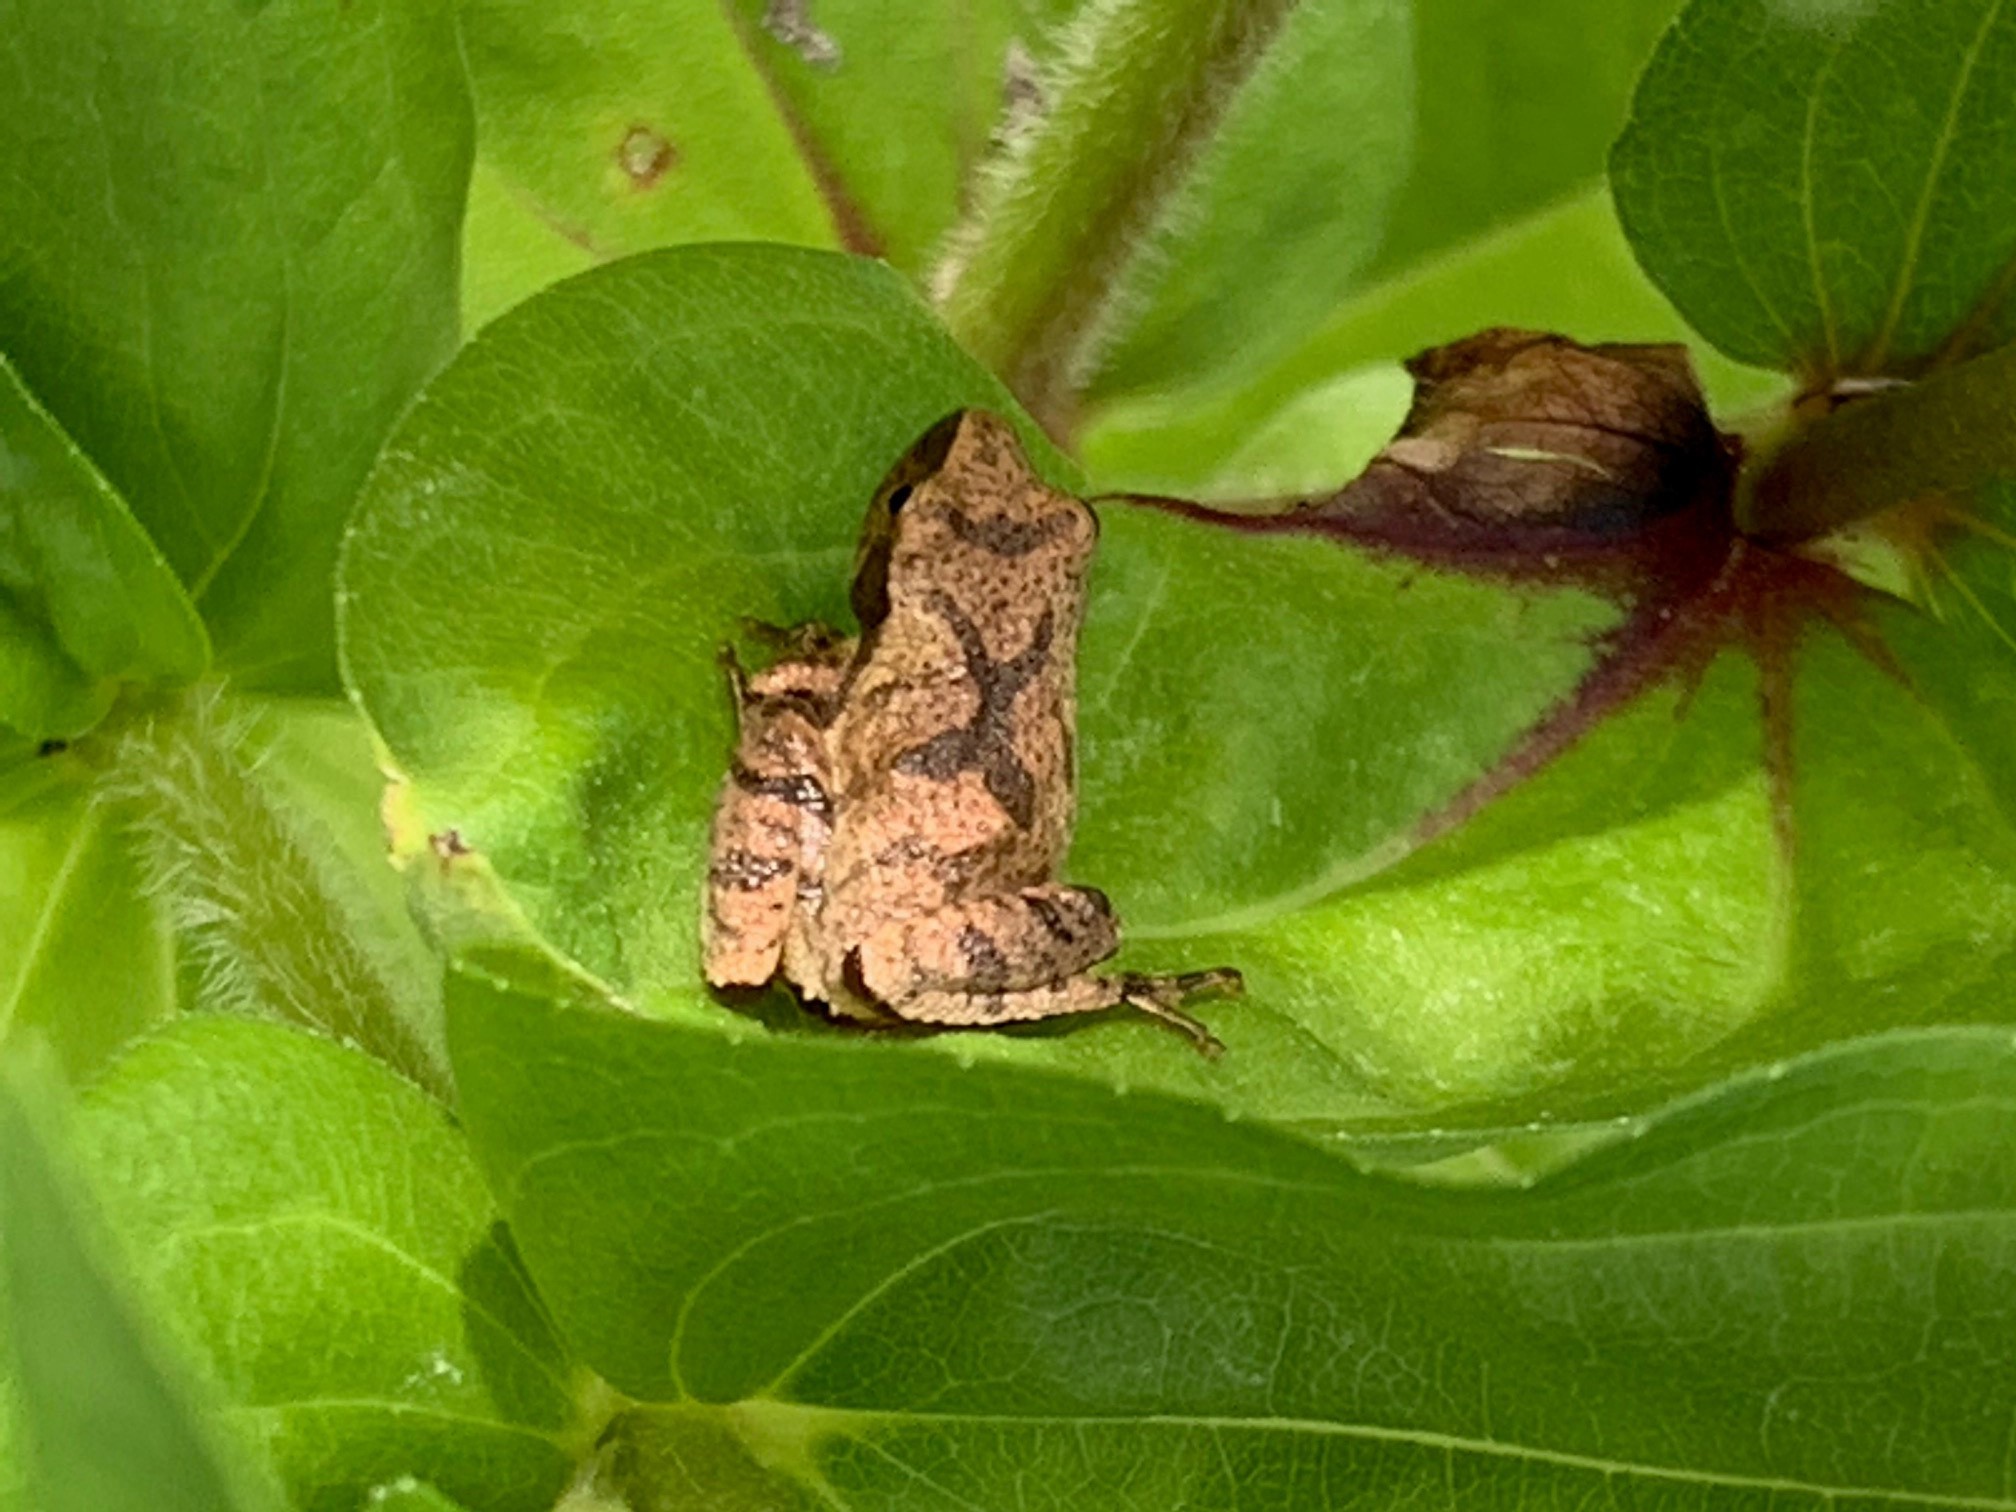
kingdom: Animalia
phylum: Chordata
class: Amphibia
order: Anura
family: Hylidae
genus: Pseudacris
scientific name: Pseudacris crucifer
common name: Spring peeper
